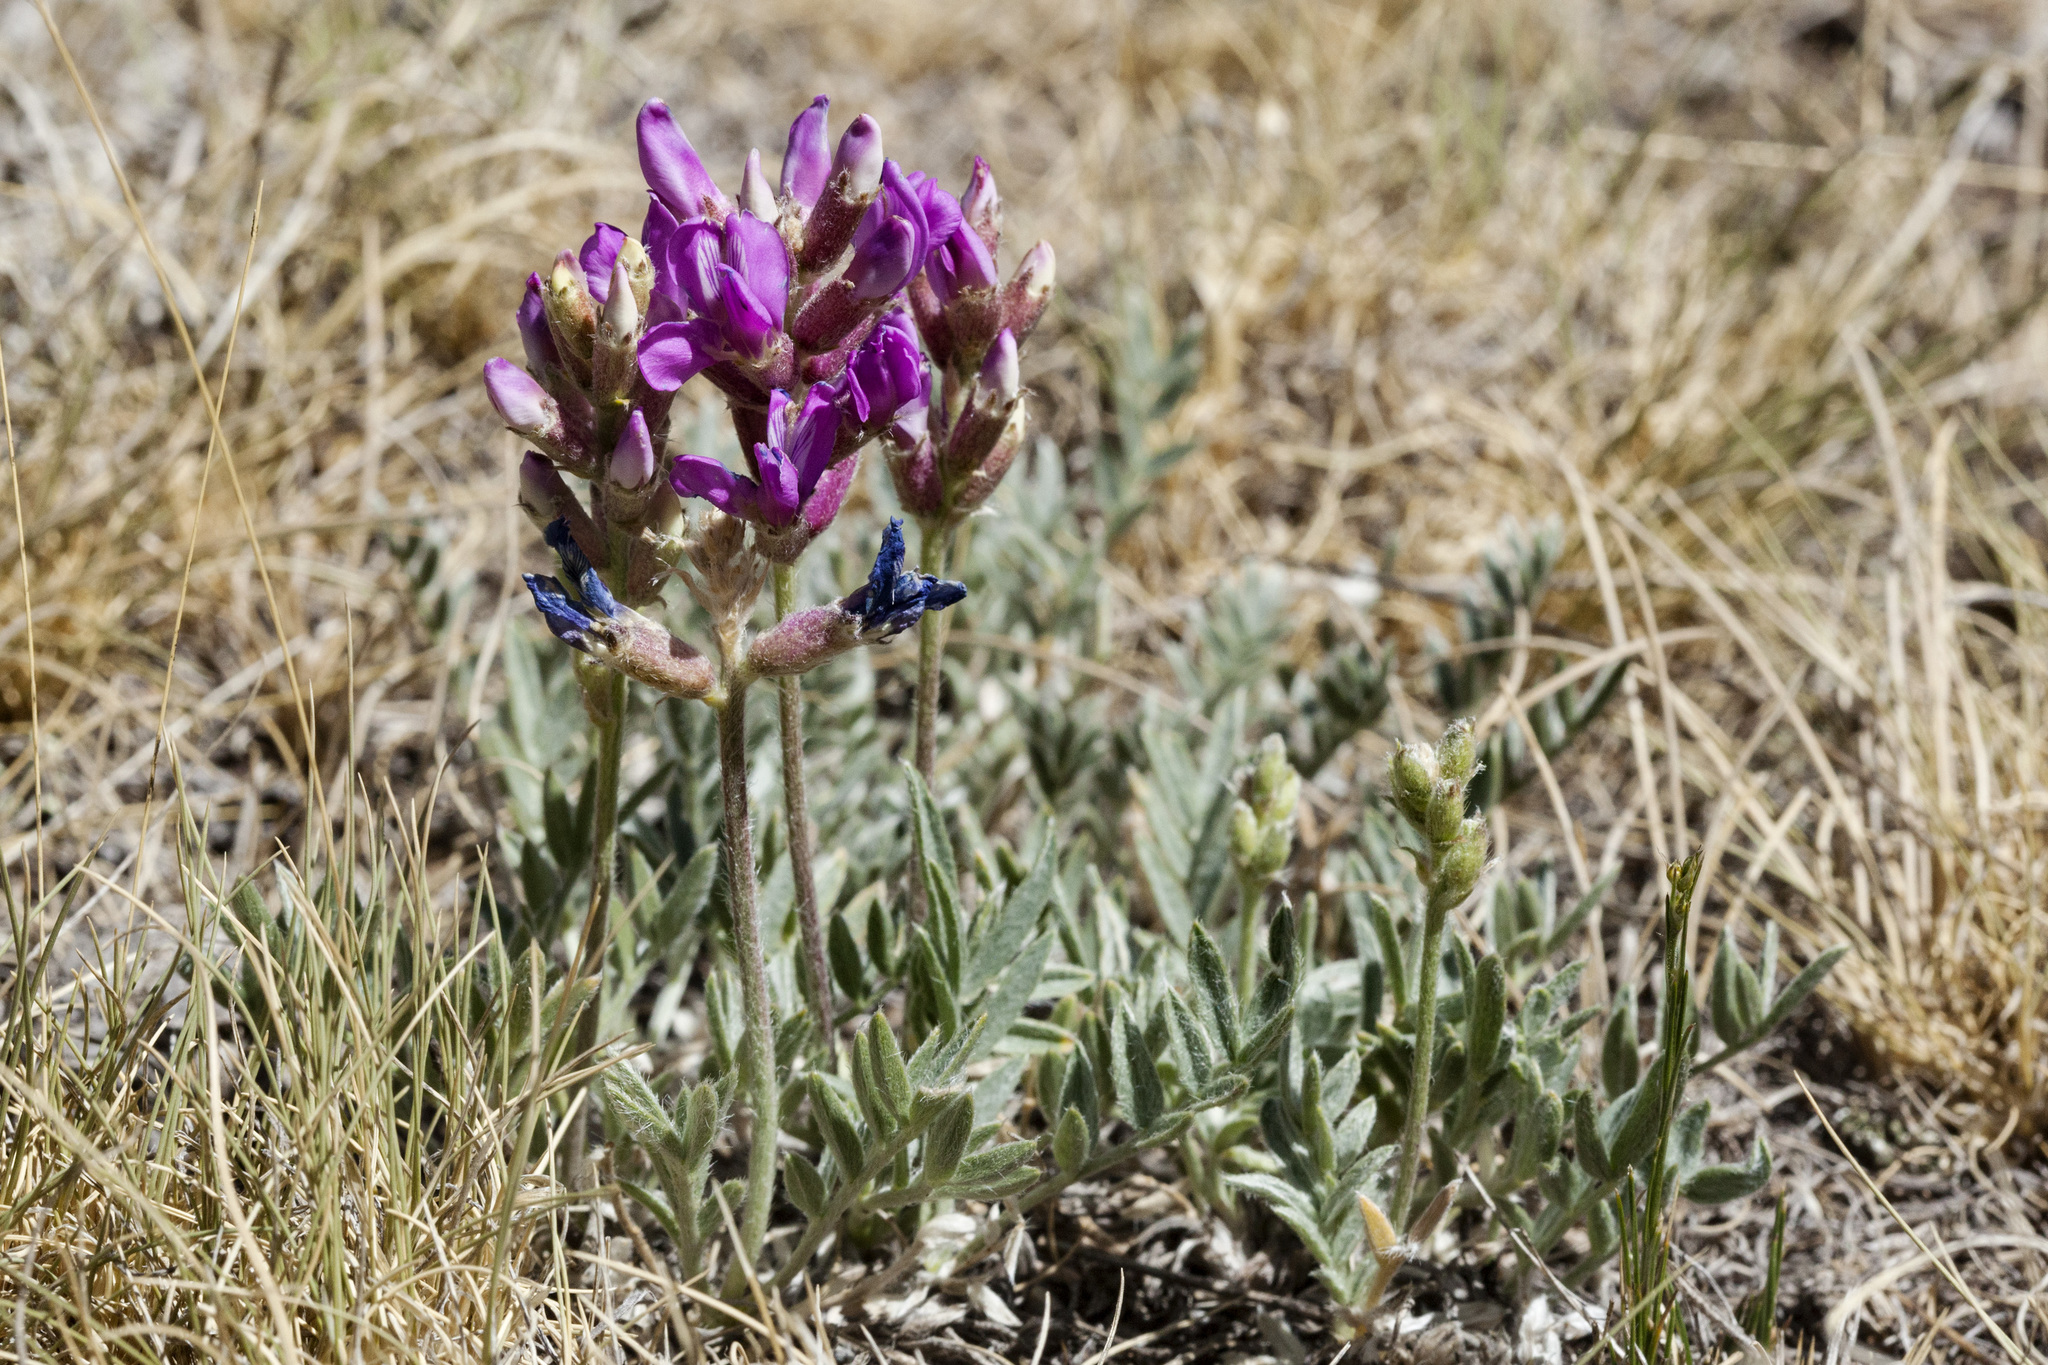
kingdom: Plantae
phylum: Tracheophyta
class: Magnoliopsida
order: Fabales
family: Fabaceae
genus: Oxytropis
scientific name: Oxytropis lambertii
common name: Purple locoweed
